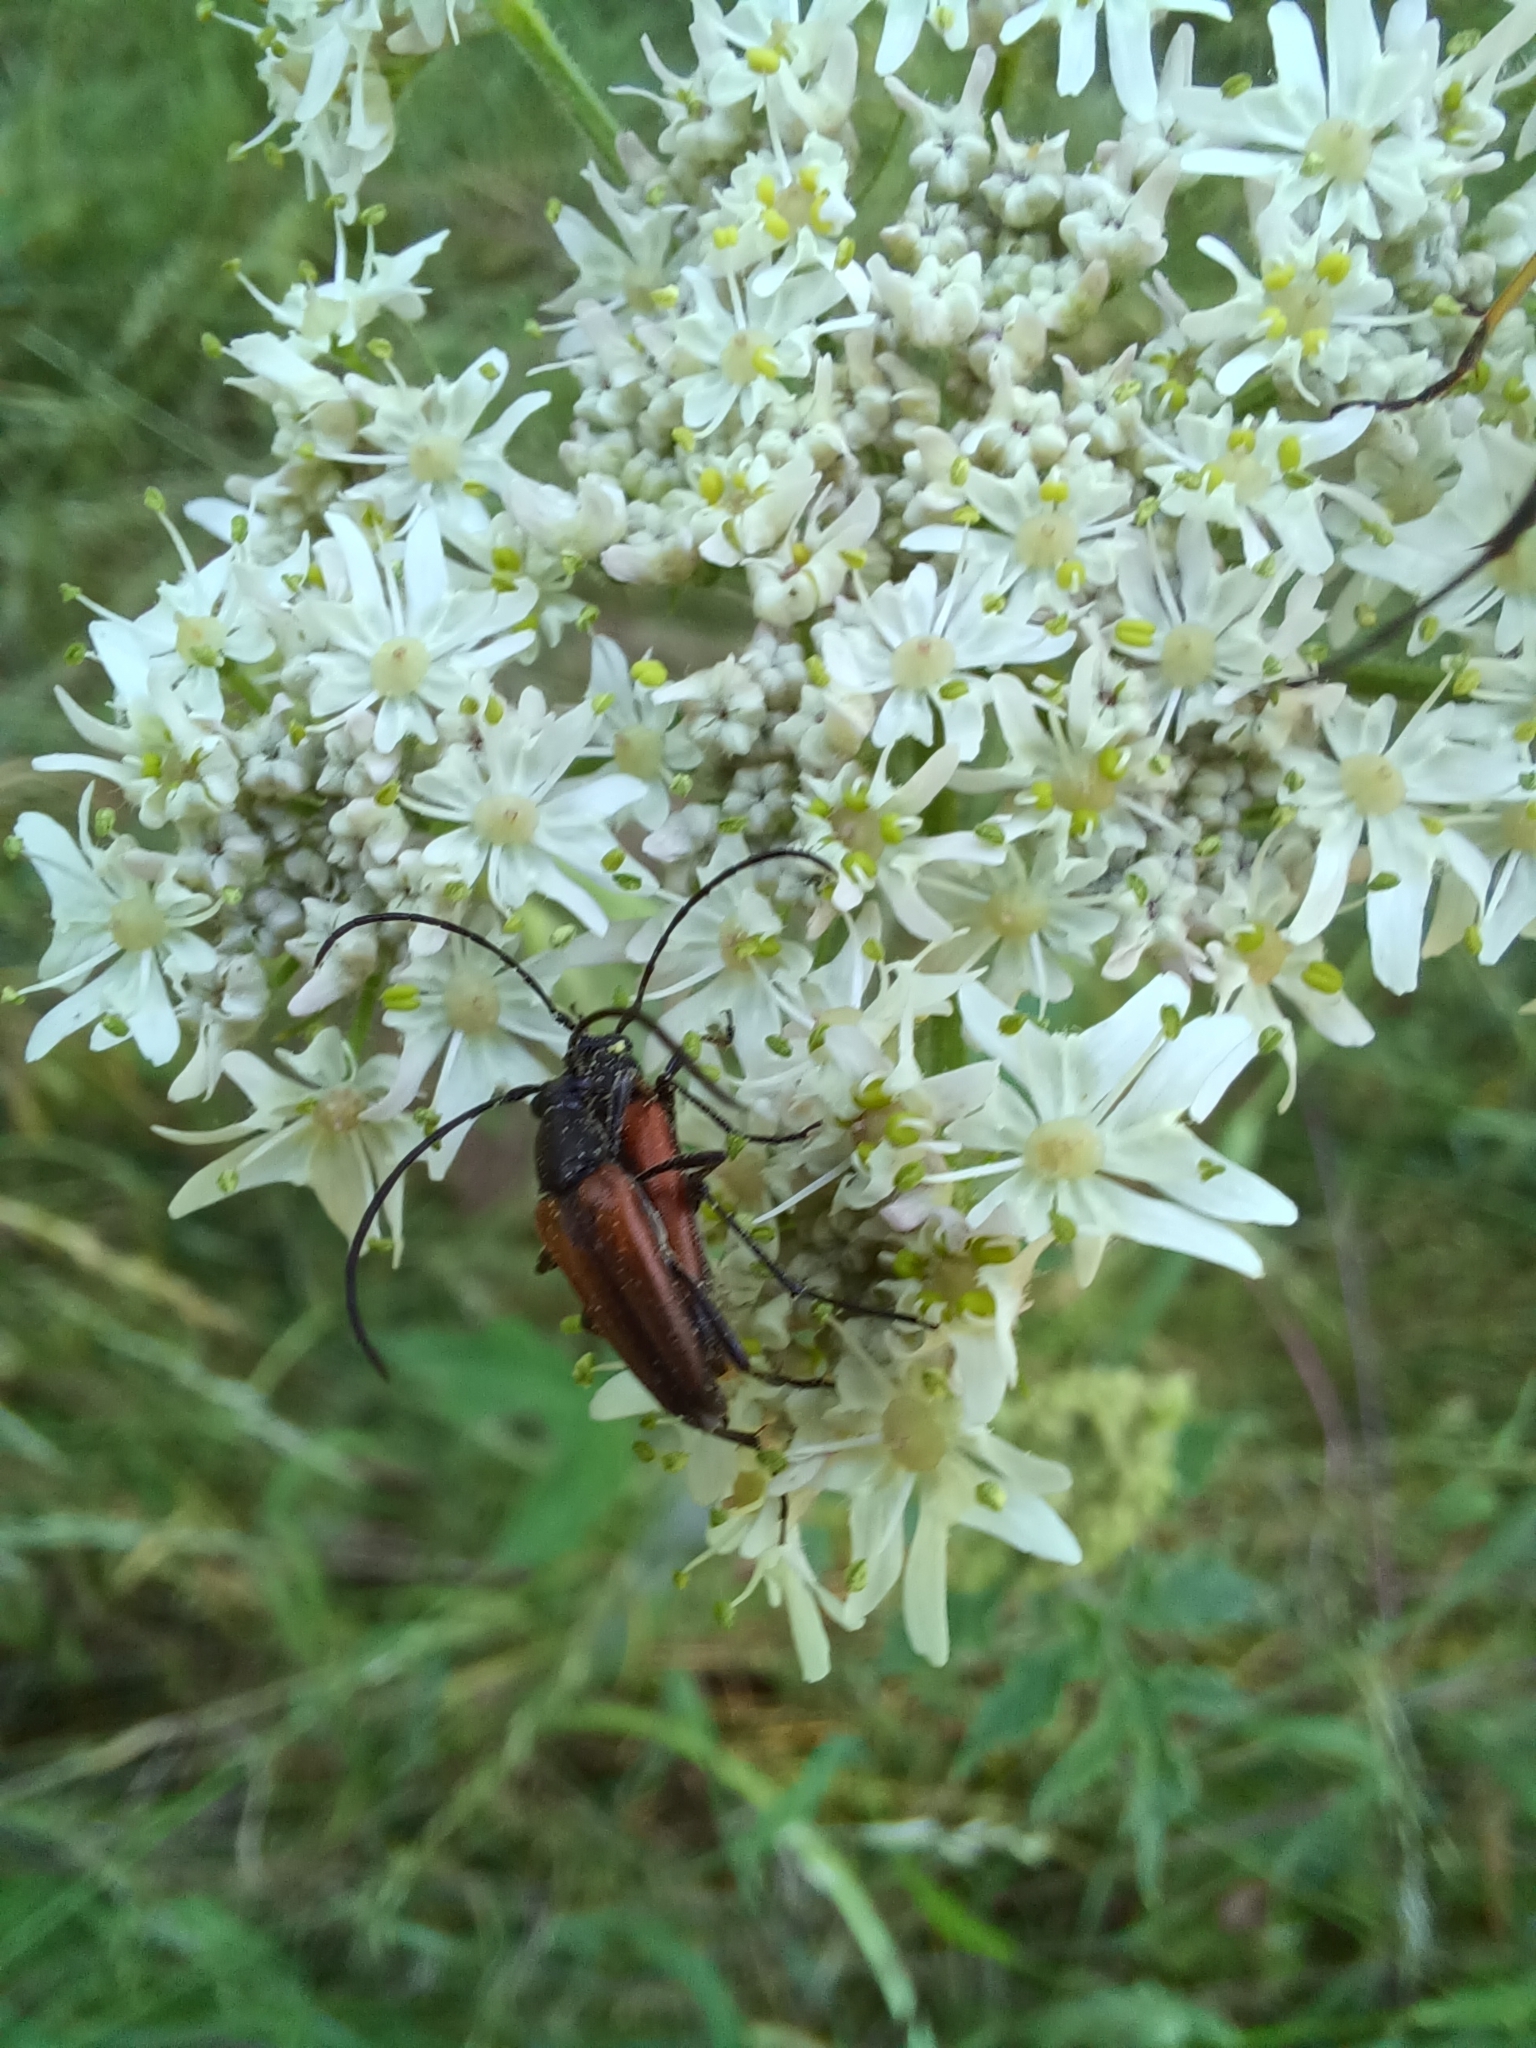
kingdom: Animalia
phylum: Arthropoda
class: Insecta
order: Coleoptera
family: Cerambycidae
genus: Stenurella
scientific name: Stenurella melanura
